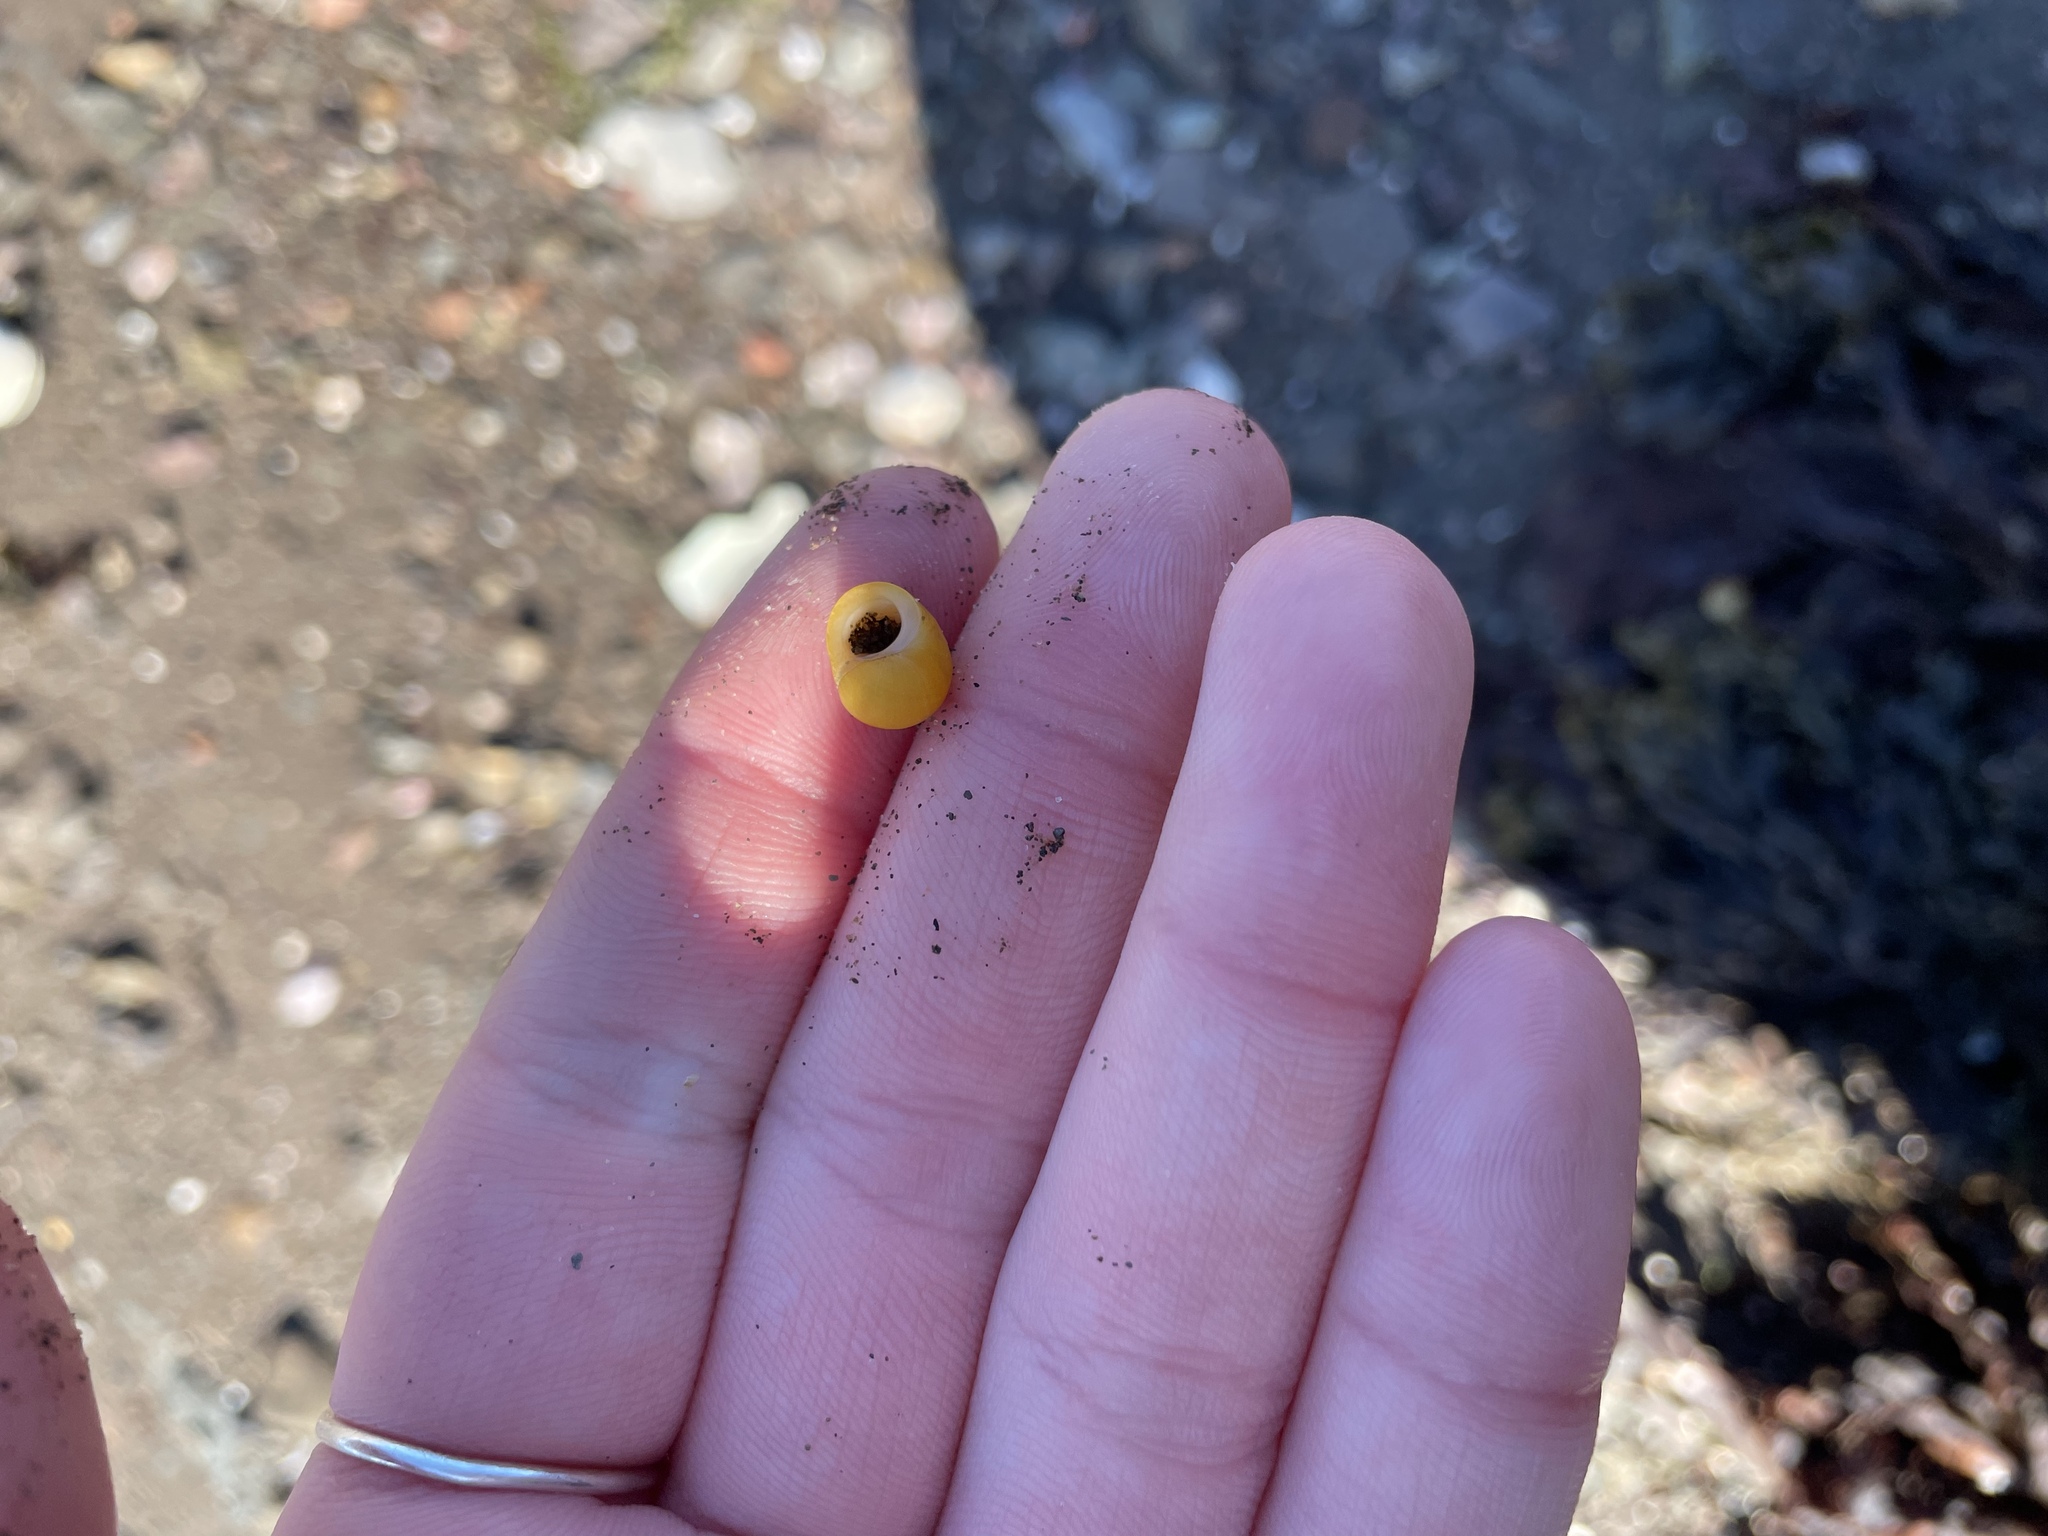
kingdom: Animalia
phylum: Mollusca
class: Gastropoda
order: Littorinimorpha
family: Littorinidae
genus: Littorina
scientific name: Littorina obtusata
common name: Flat periwinkle
